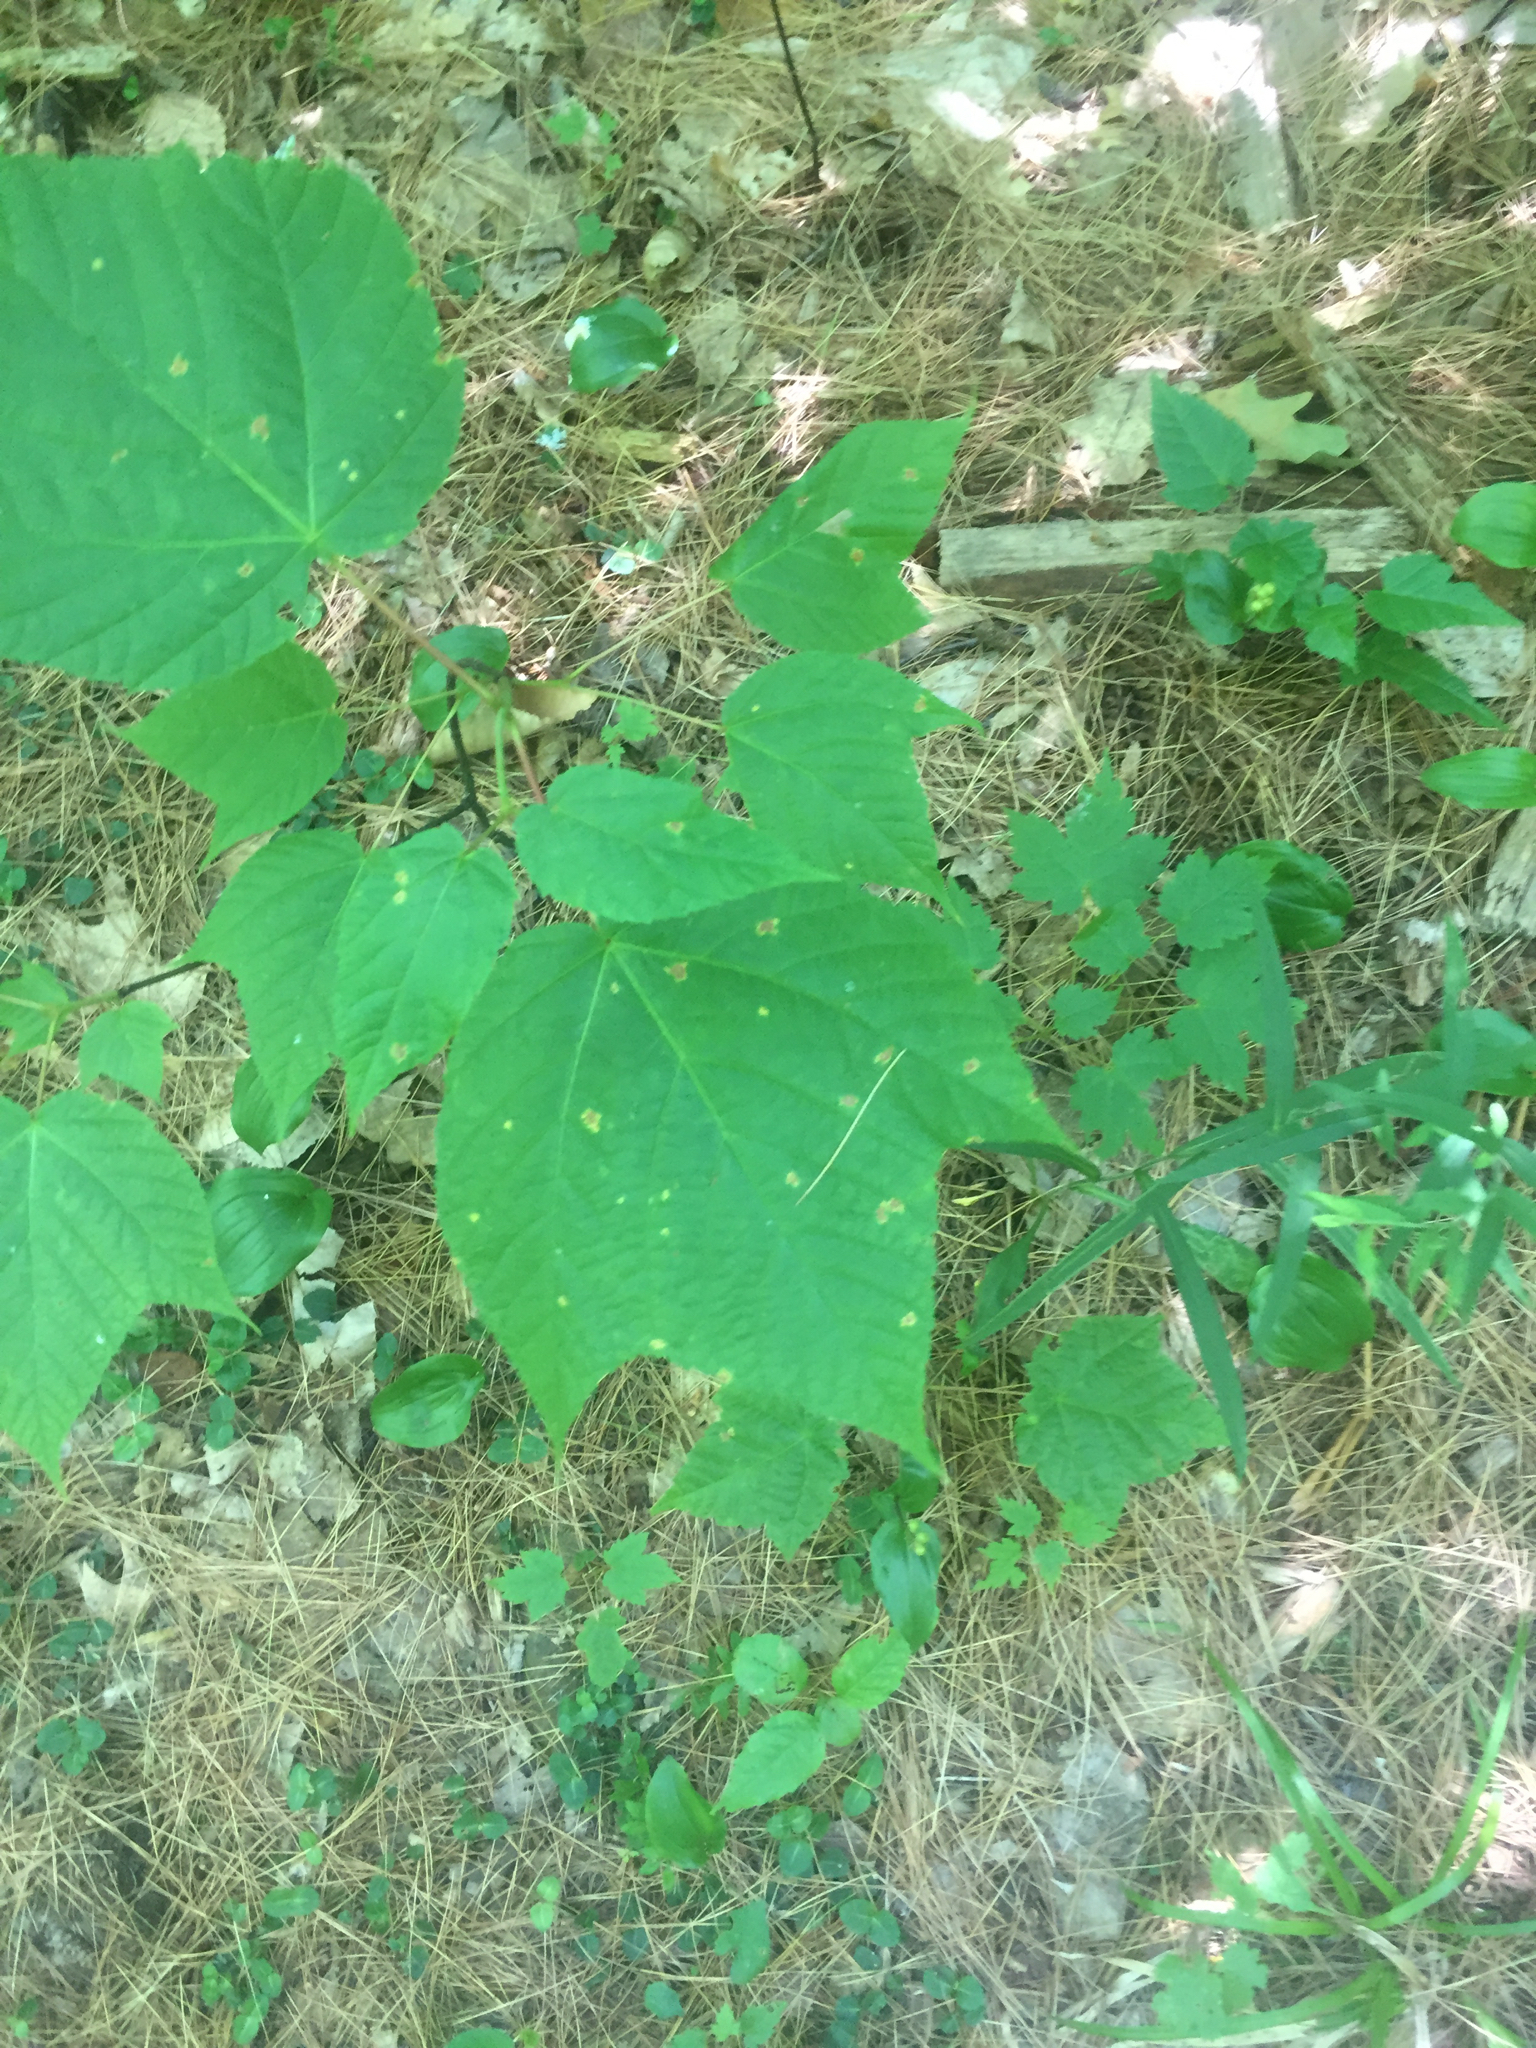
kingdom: Plantae
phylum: Tracheophyta
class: Magnoliopsida
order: Sapindales
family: Sapindaceae
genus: Acer
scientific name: Acer pensylvanicum
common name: Moosewood
